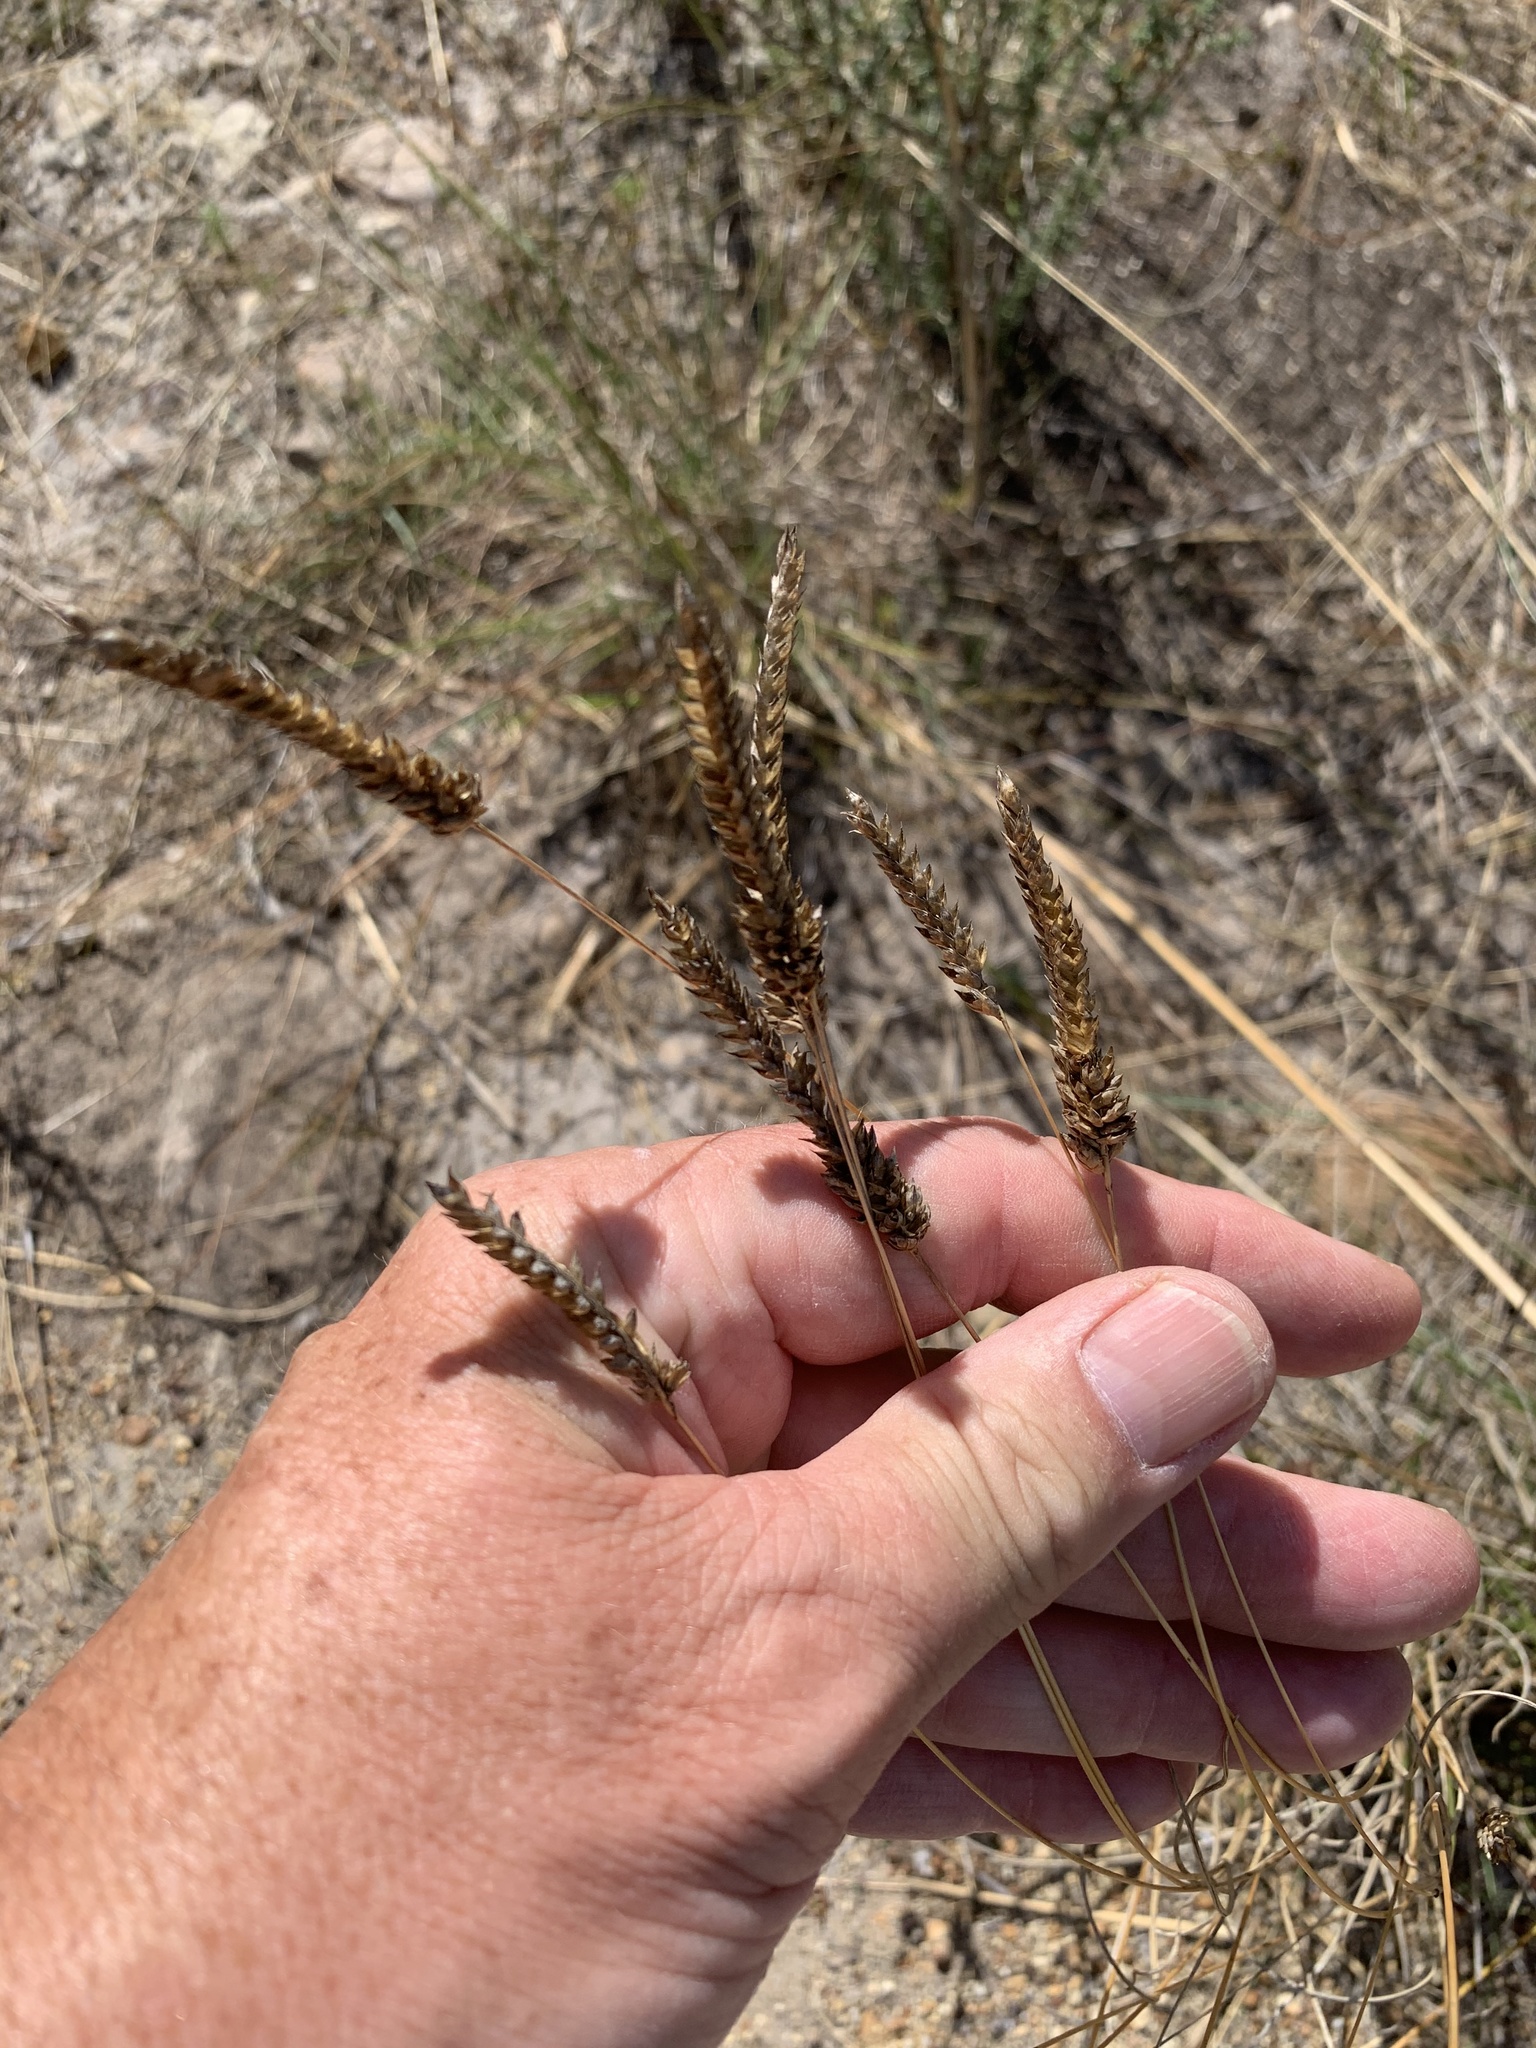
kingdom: Plantae
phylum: Tracheophyta
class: Liliopsida
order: Poales
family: Poaceae
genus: Tribolium
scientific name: Tribolium uniolae
